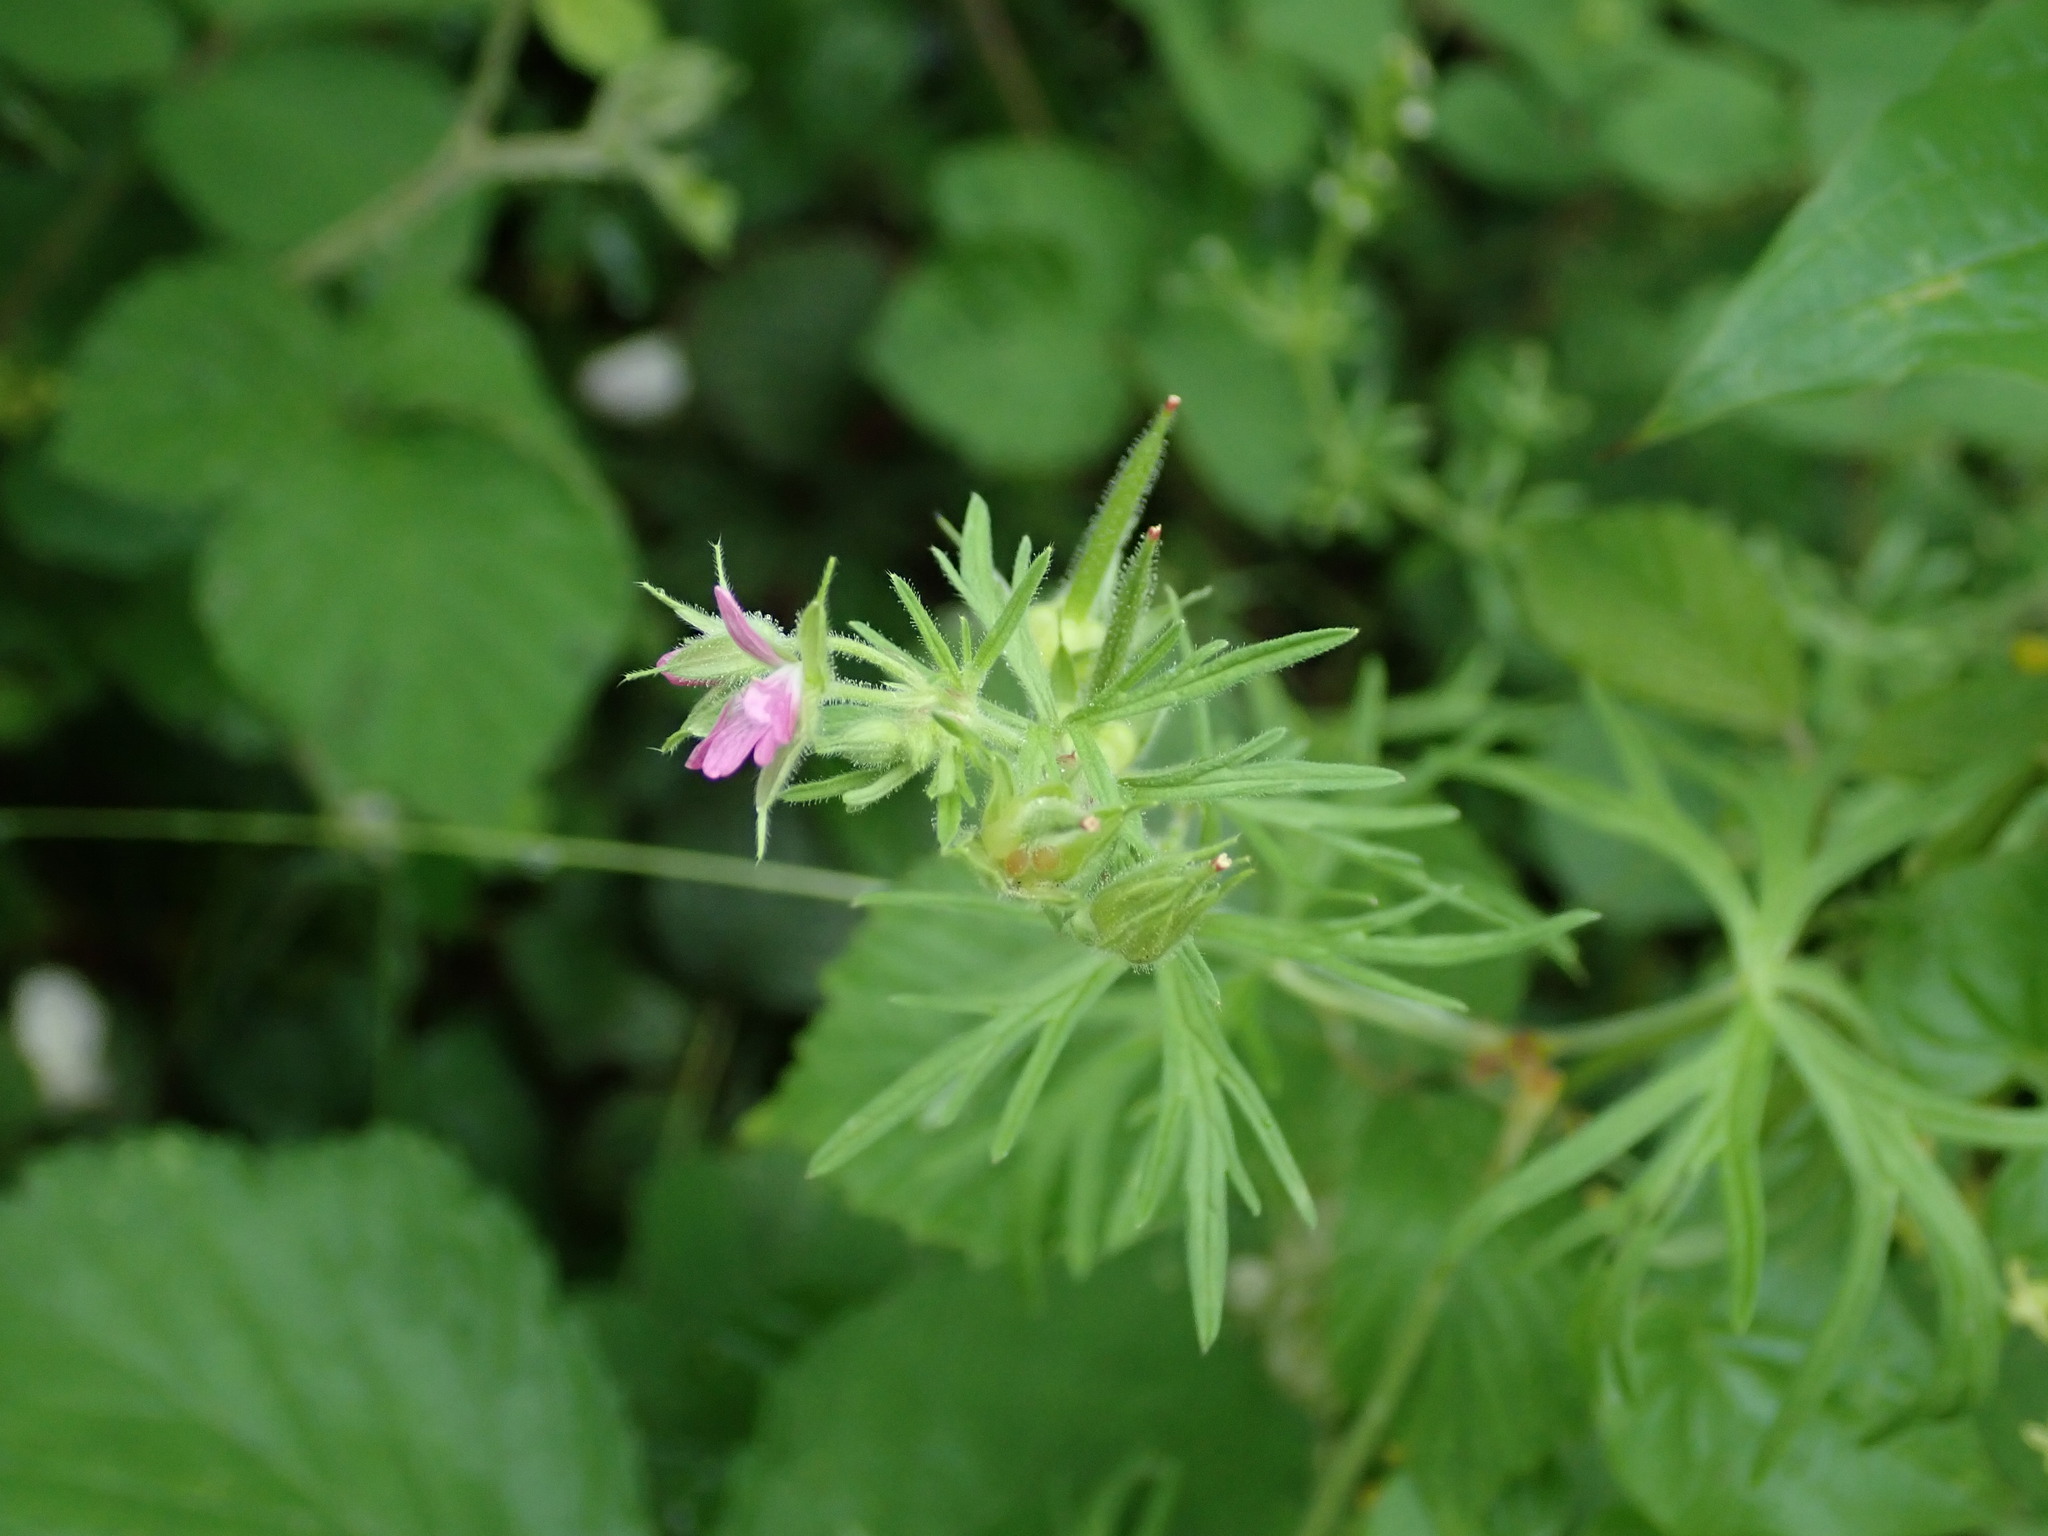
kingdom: Plantae
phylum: Tracheophyta
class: Magnoliopsida
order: Geraniales
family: Geraniaceae
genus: Geranium
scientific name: Geranium dissectum
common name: Cut-leaved crane's-bill
